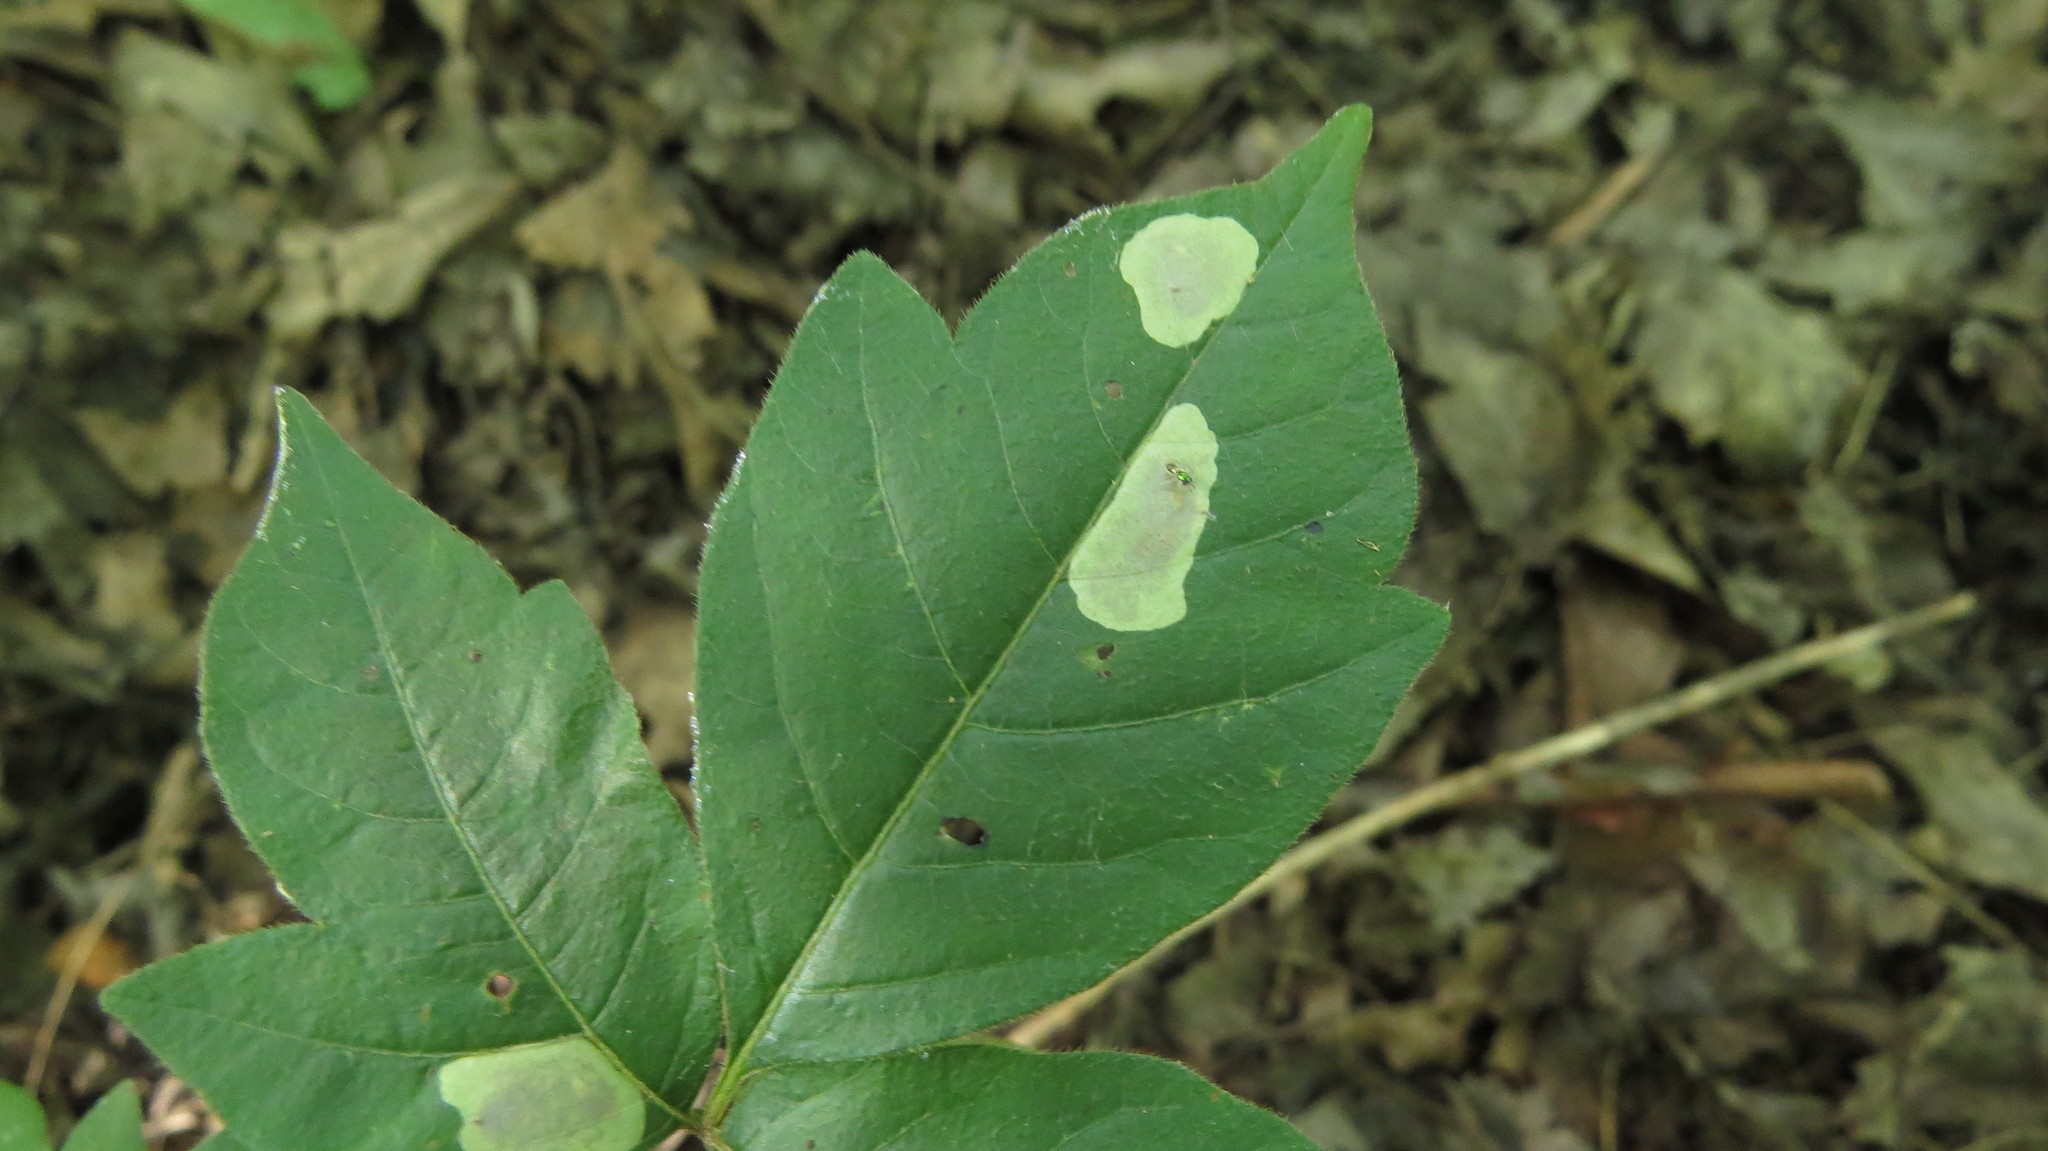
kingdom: Animalia
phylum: Arthropoda
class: Insecta
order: Lepidoptera
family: Gracillariidae
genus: Cameraria
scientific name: Cameraria guttifinitella
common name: Poison ivy leaf-miner moth
